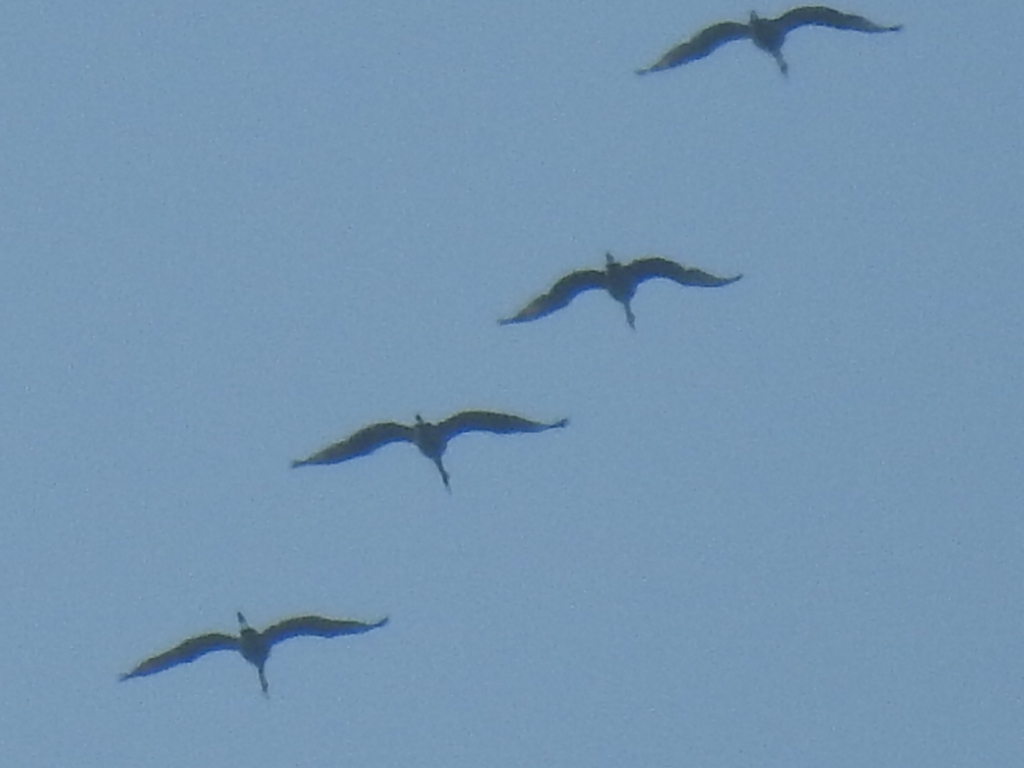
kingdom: Animalia
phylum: Chordata
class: Aves
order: Gruiformes
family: Gruidae
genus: Grus
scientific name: Grus canadensis
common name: Sandhill crane
